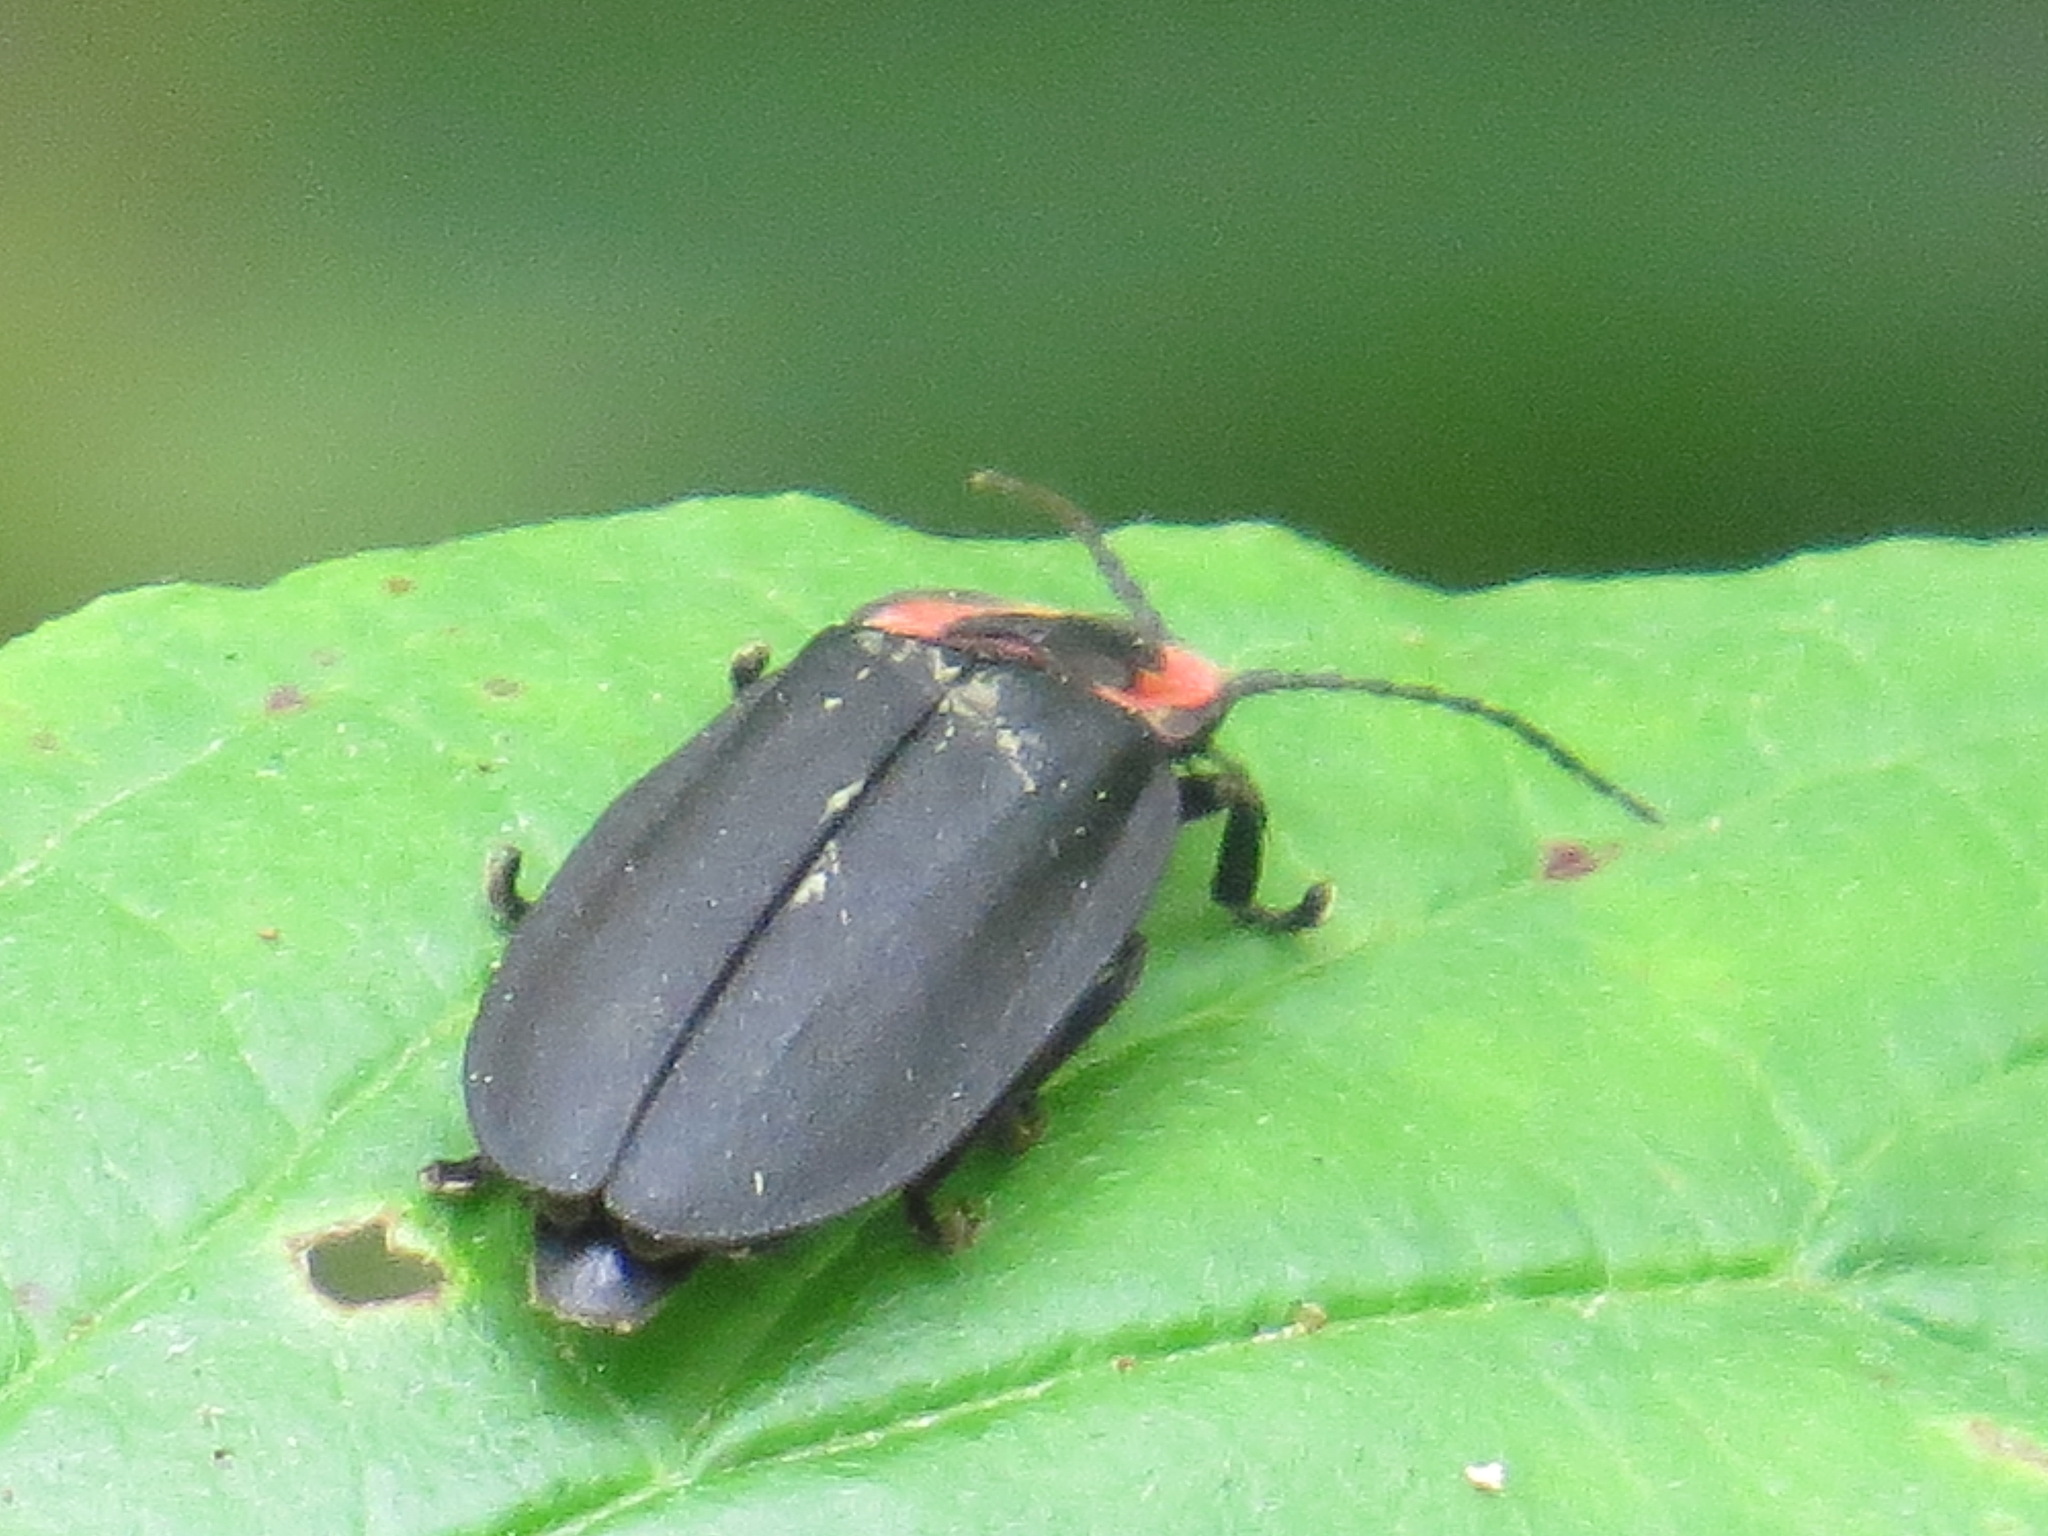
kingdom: Animalia
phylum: Arthropoda
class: Insecta
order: Coleoptera
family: Lampyridae
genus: Photinus
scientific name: Photinus californica
